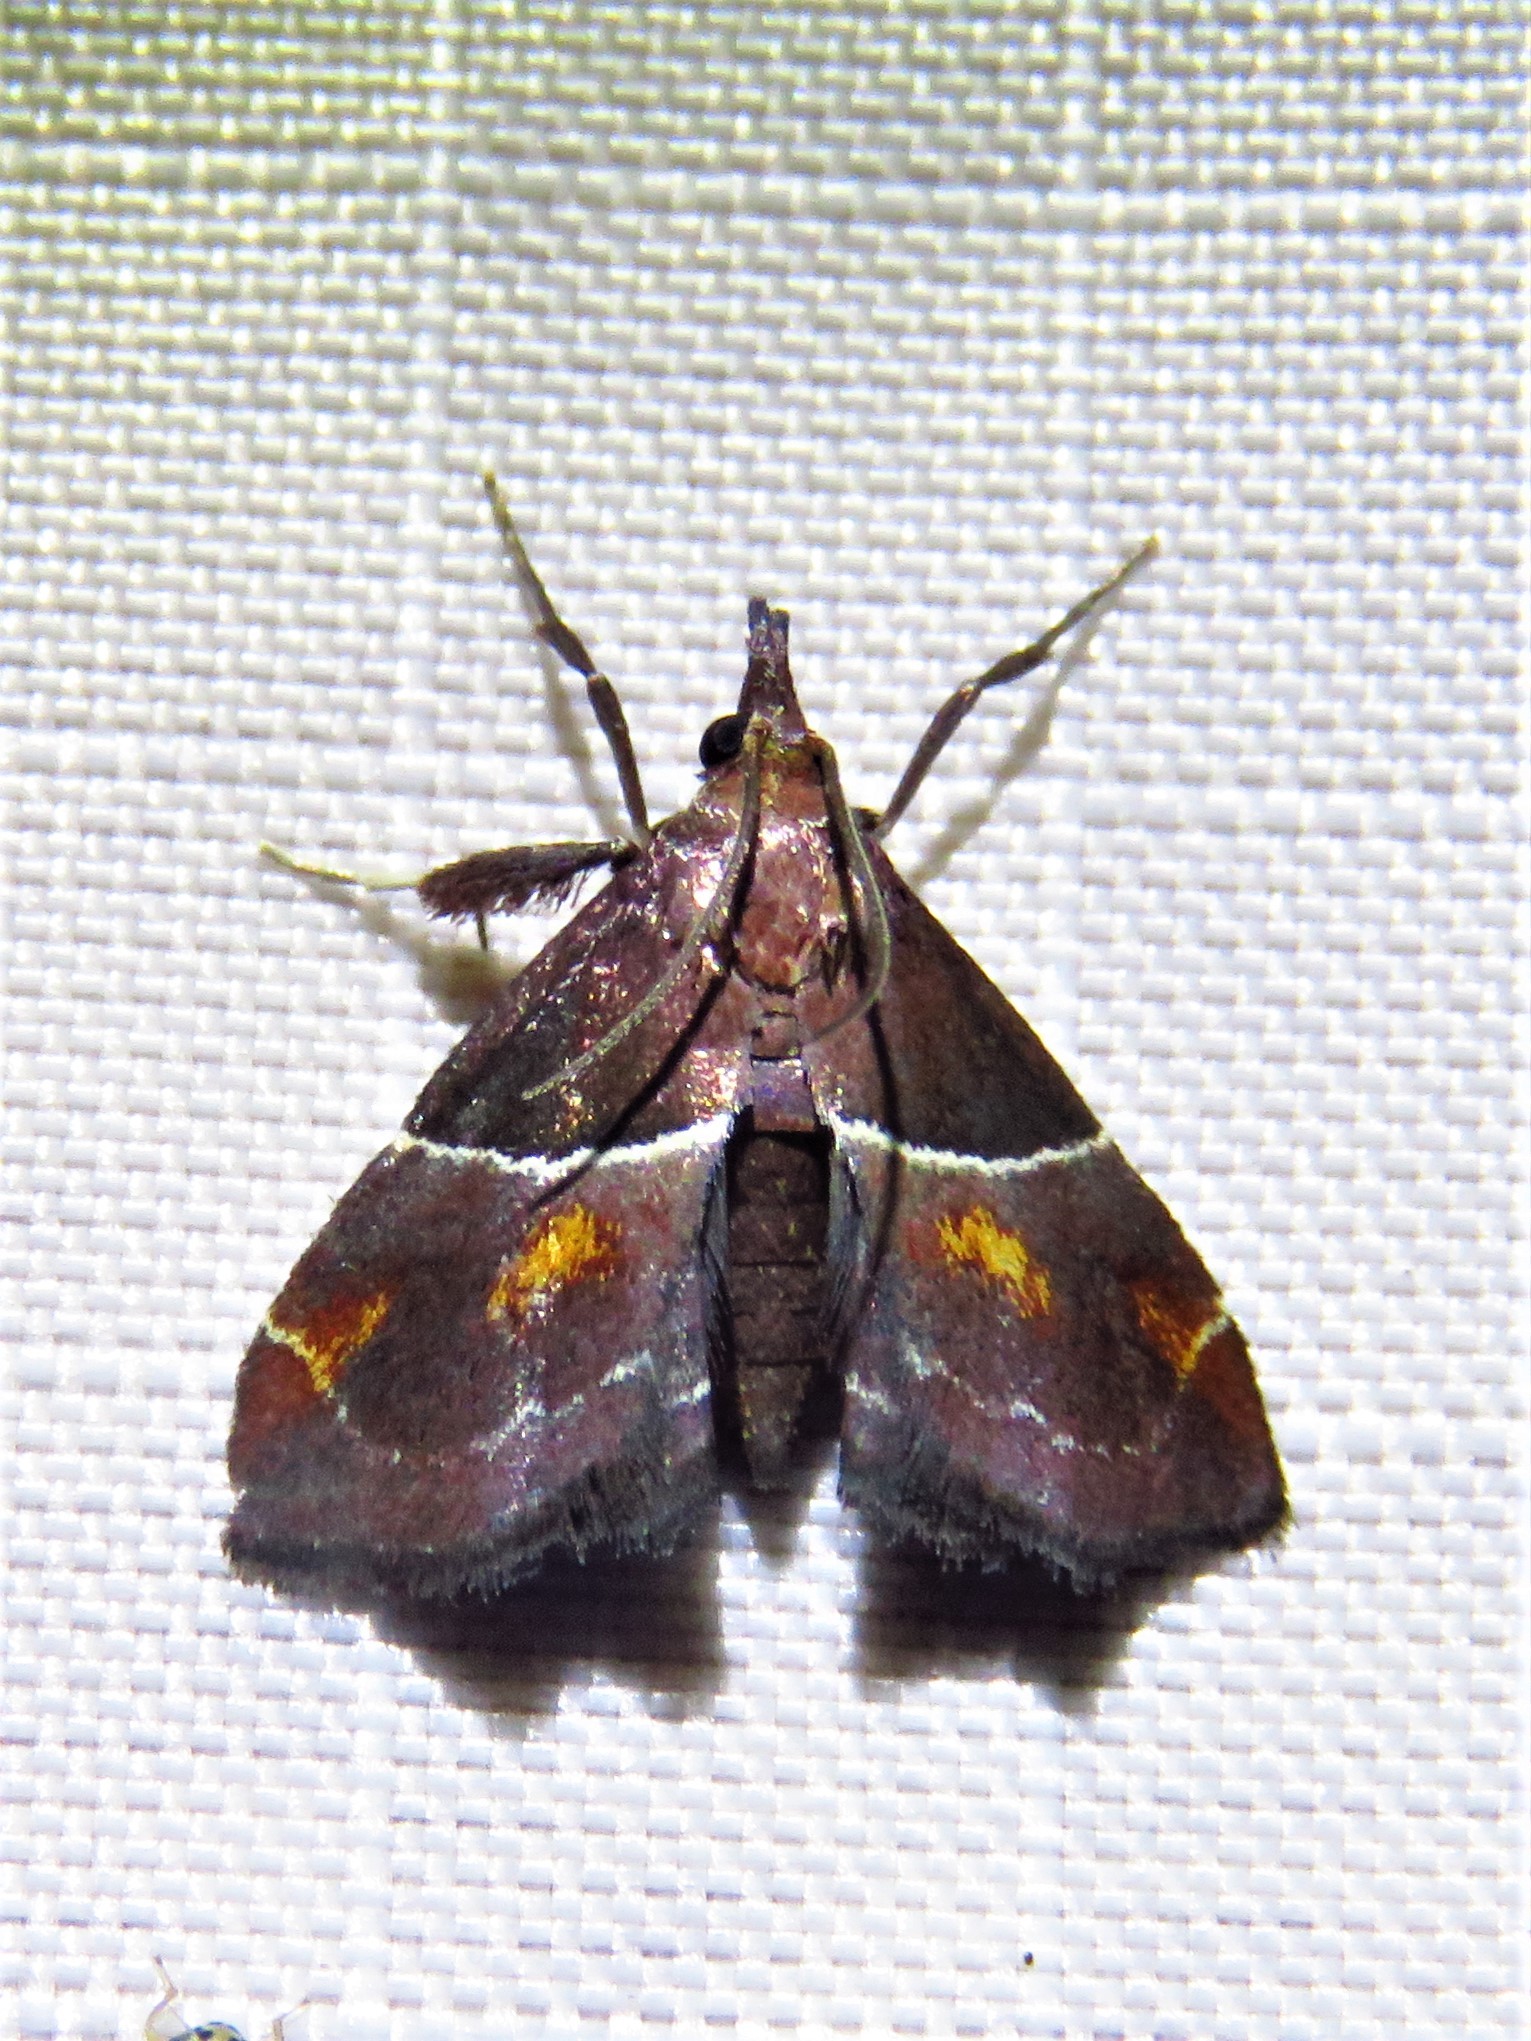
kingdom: Animalia
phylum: Arthropoda
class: Insecta
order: Lepidoptera
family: Pyralidae
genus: Penthesilea
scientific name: Penthesilea sacculalis
